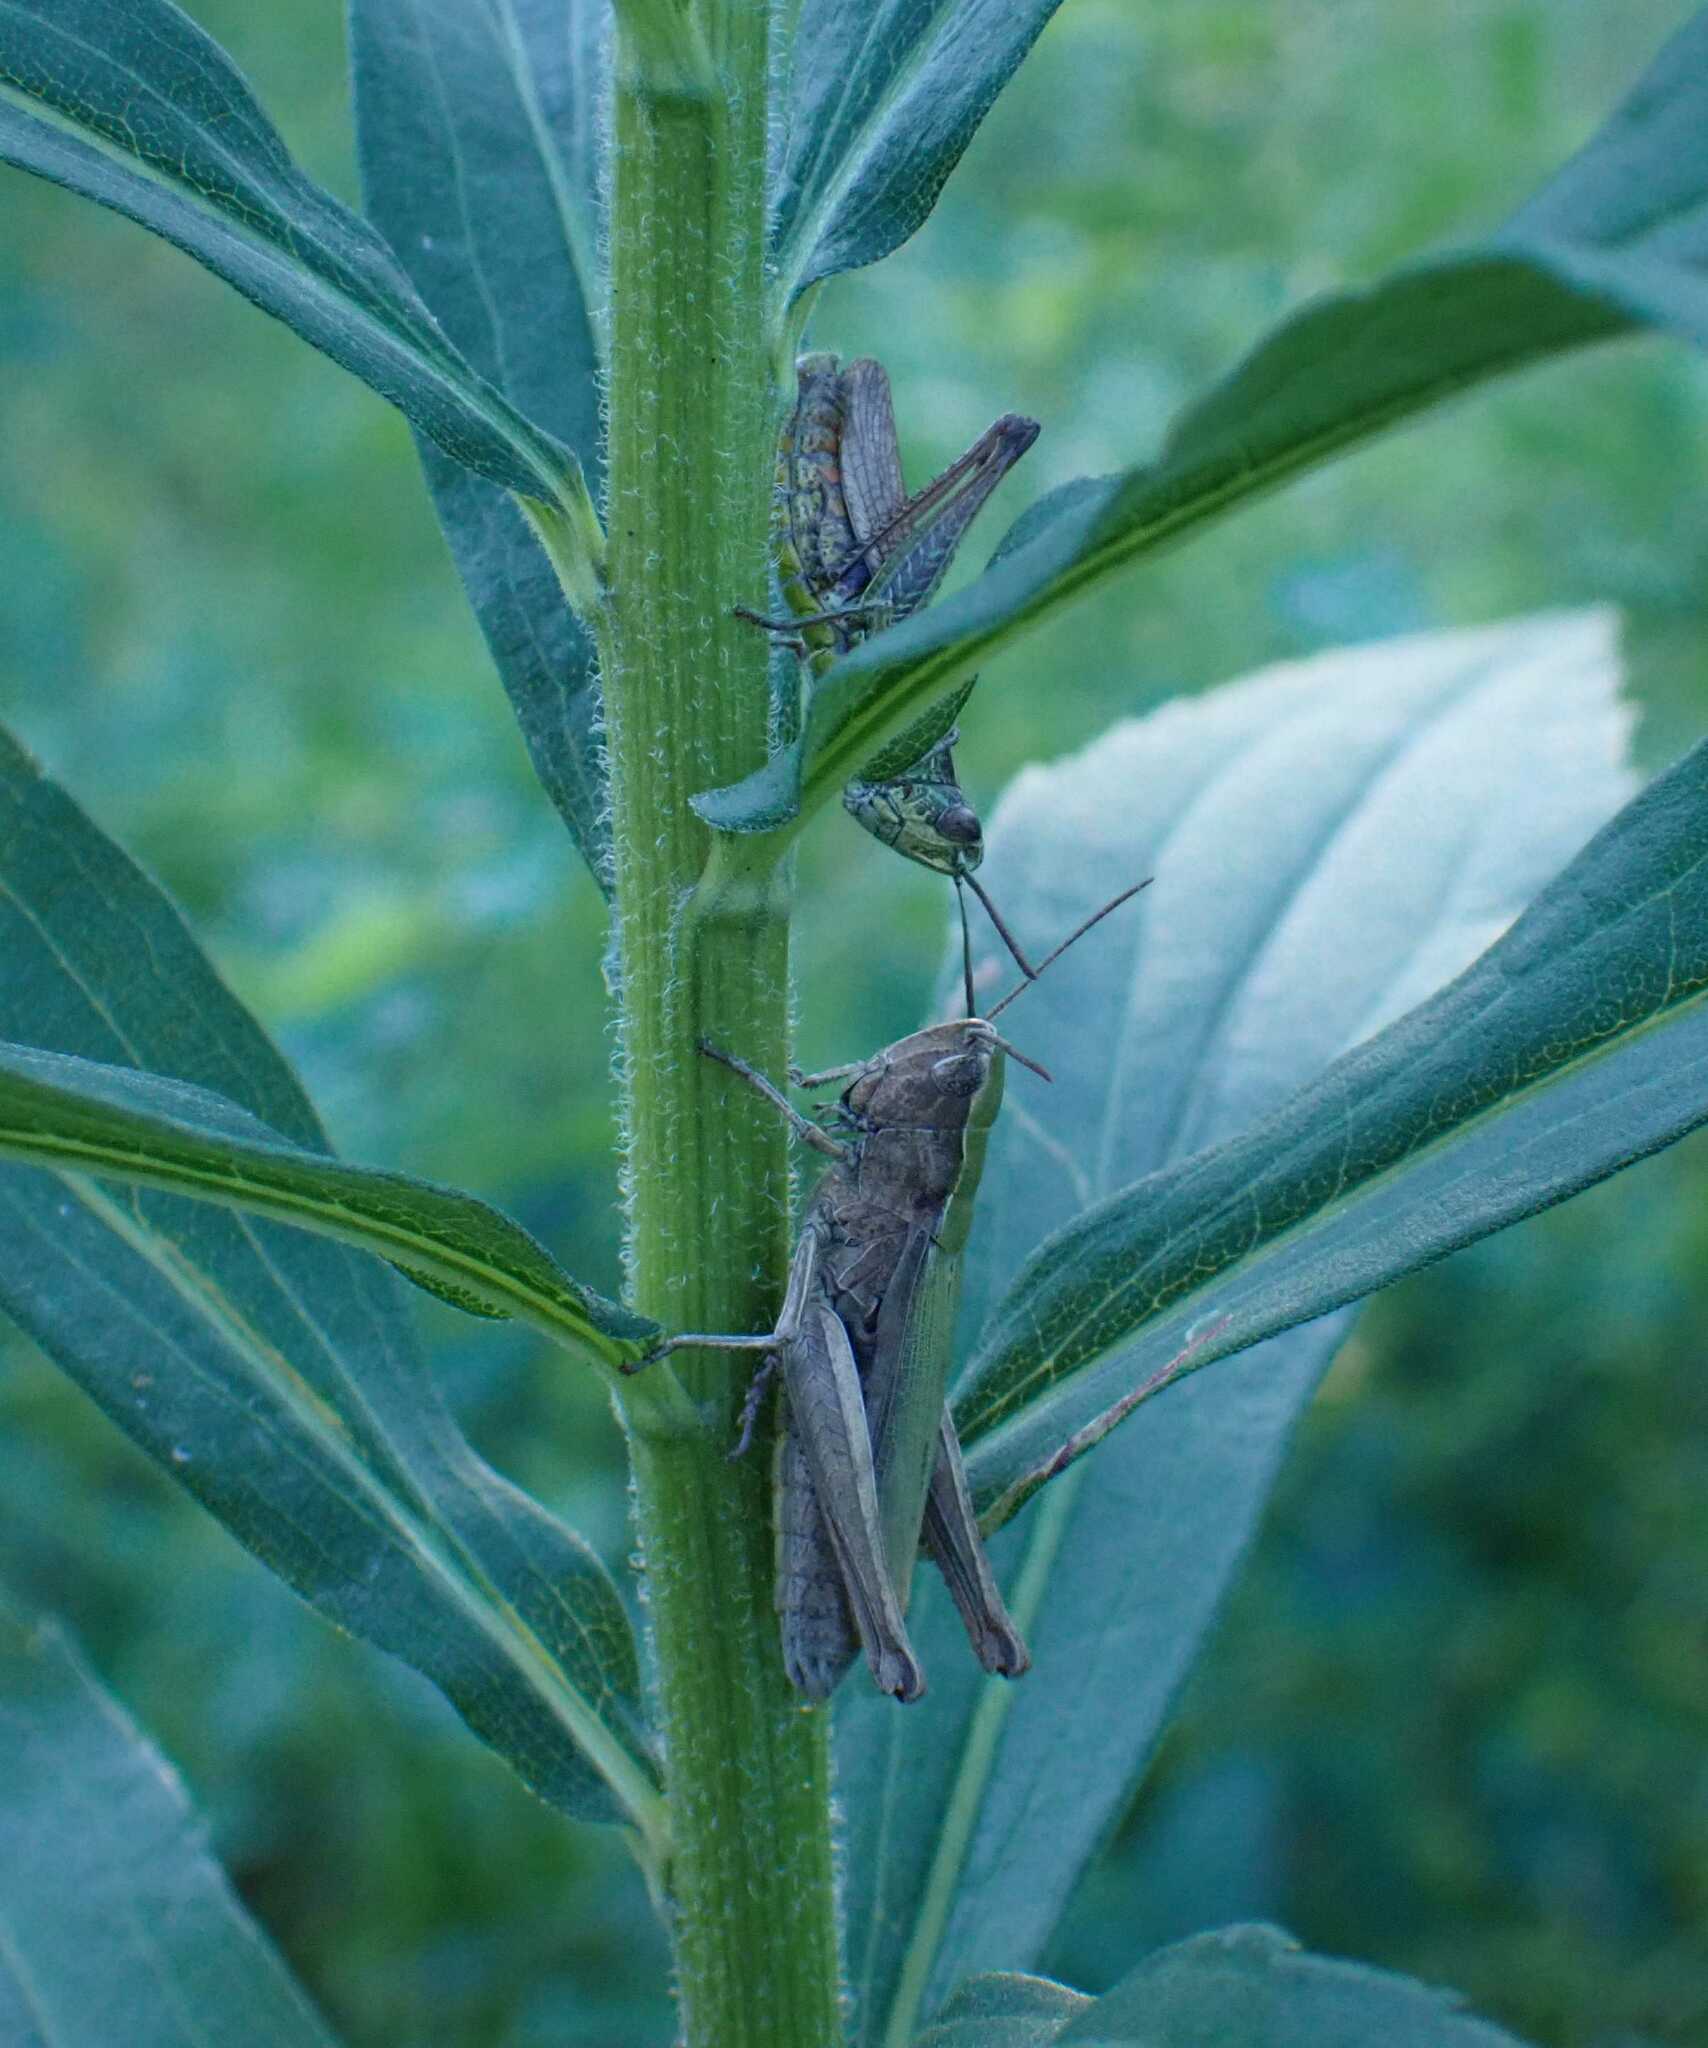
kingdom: Animalia
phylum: Arthropoda
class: Insecta
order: Orthoptera
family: Acrididae
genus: Chorthippus
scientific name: Chorthippus dorsatus
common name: Steppe grasshopper
